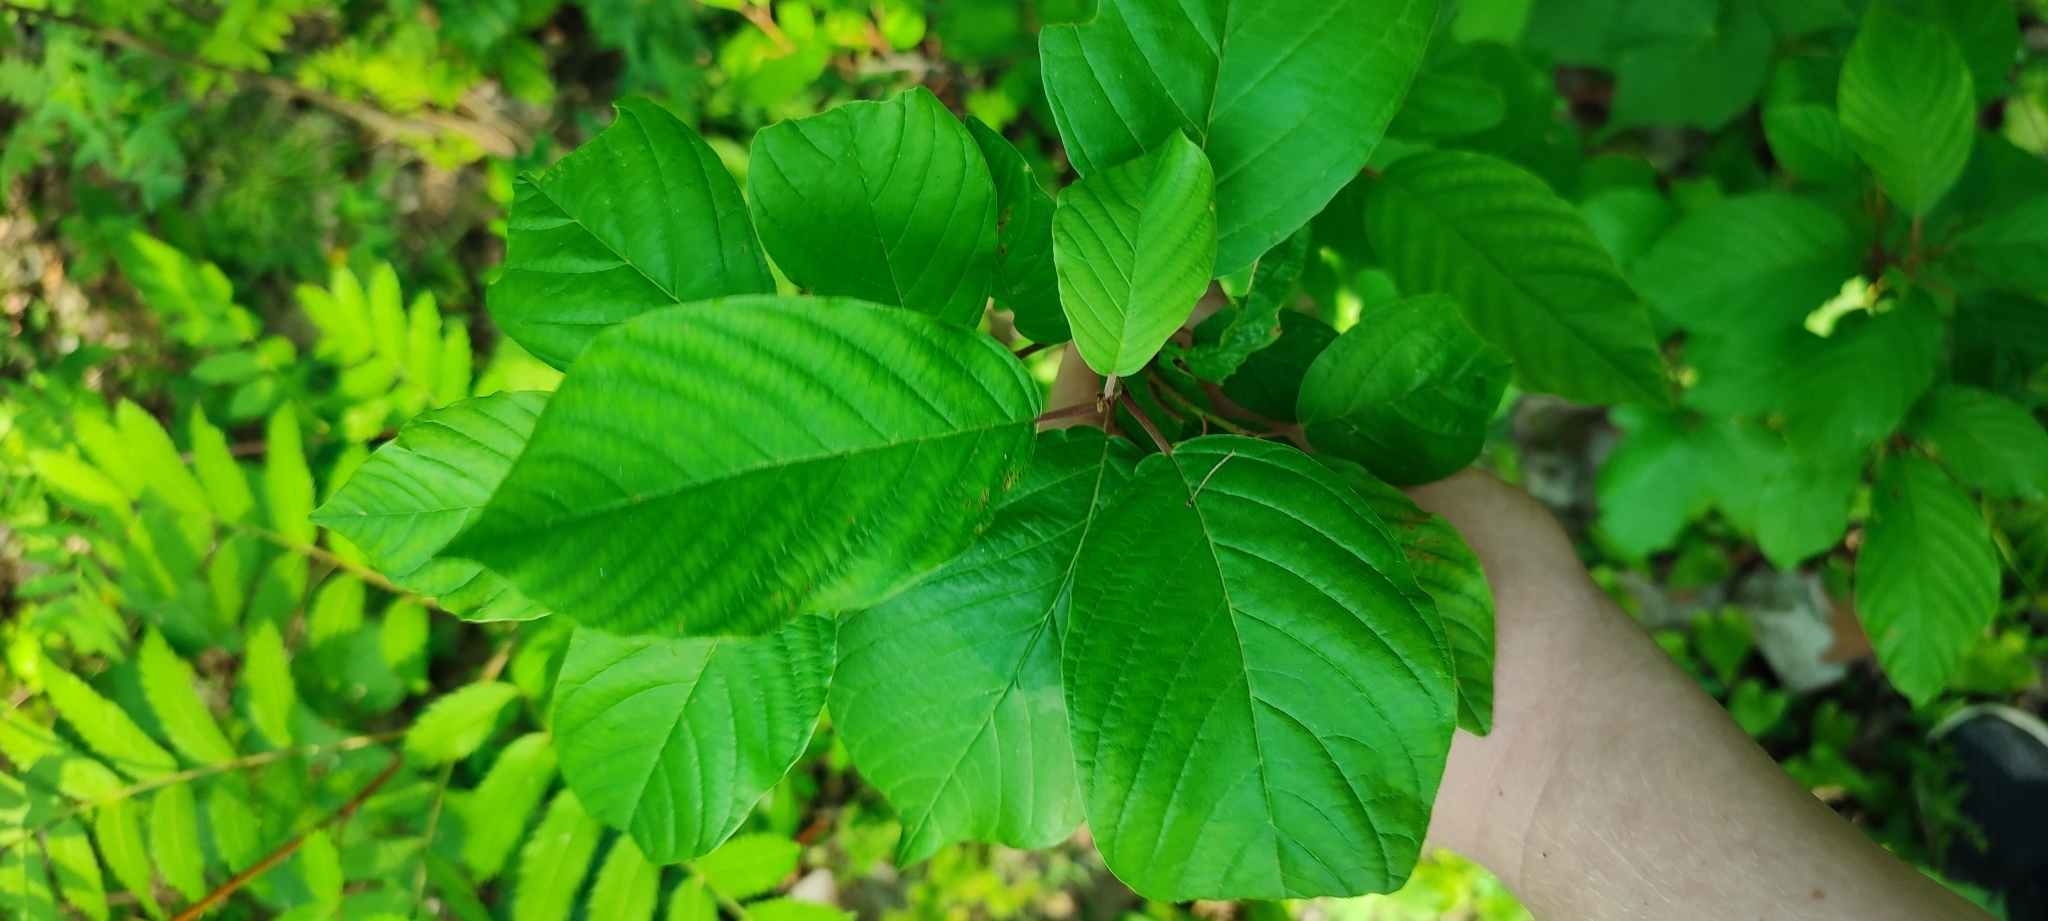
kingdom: Plantae
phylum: Tracheophyta
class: Magnoliopsida
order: Rosales
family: Rhamnaceae
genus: Frangula
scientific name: Frangula alnus
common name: Alder buckthorn
